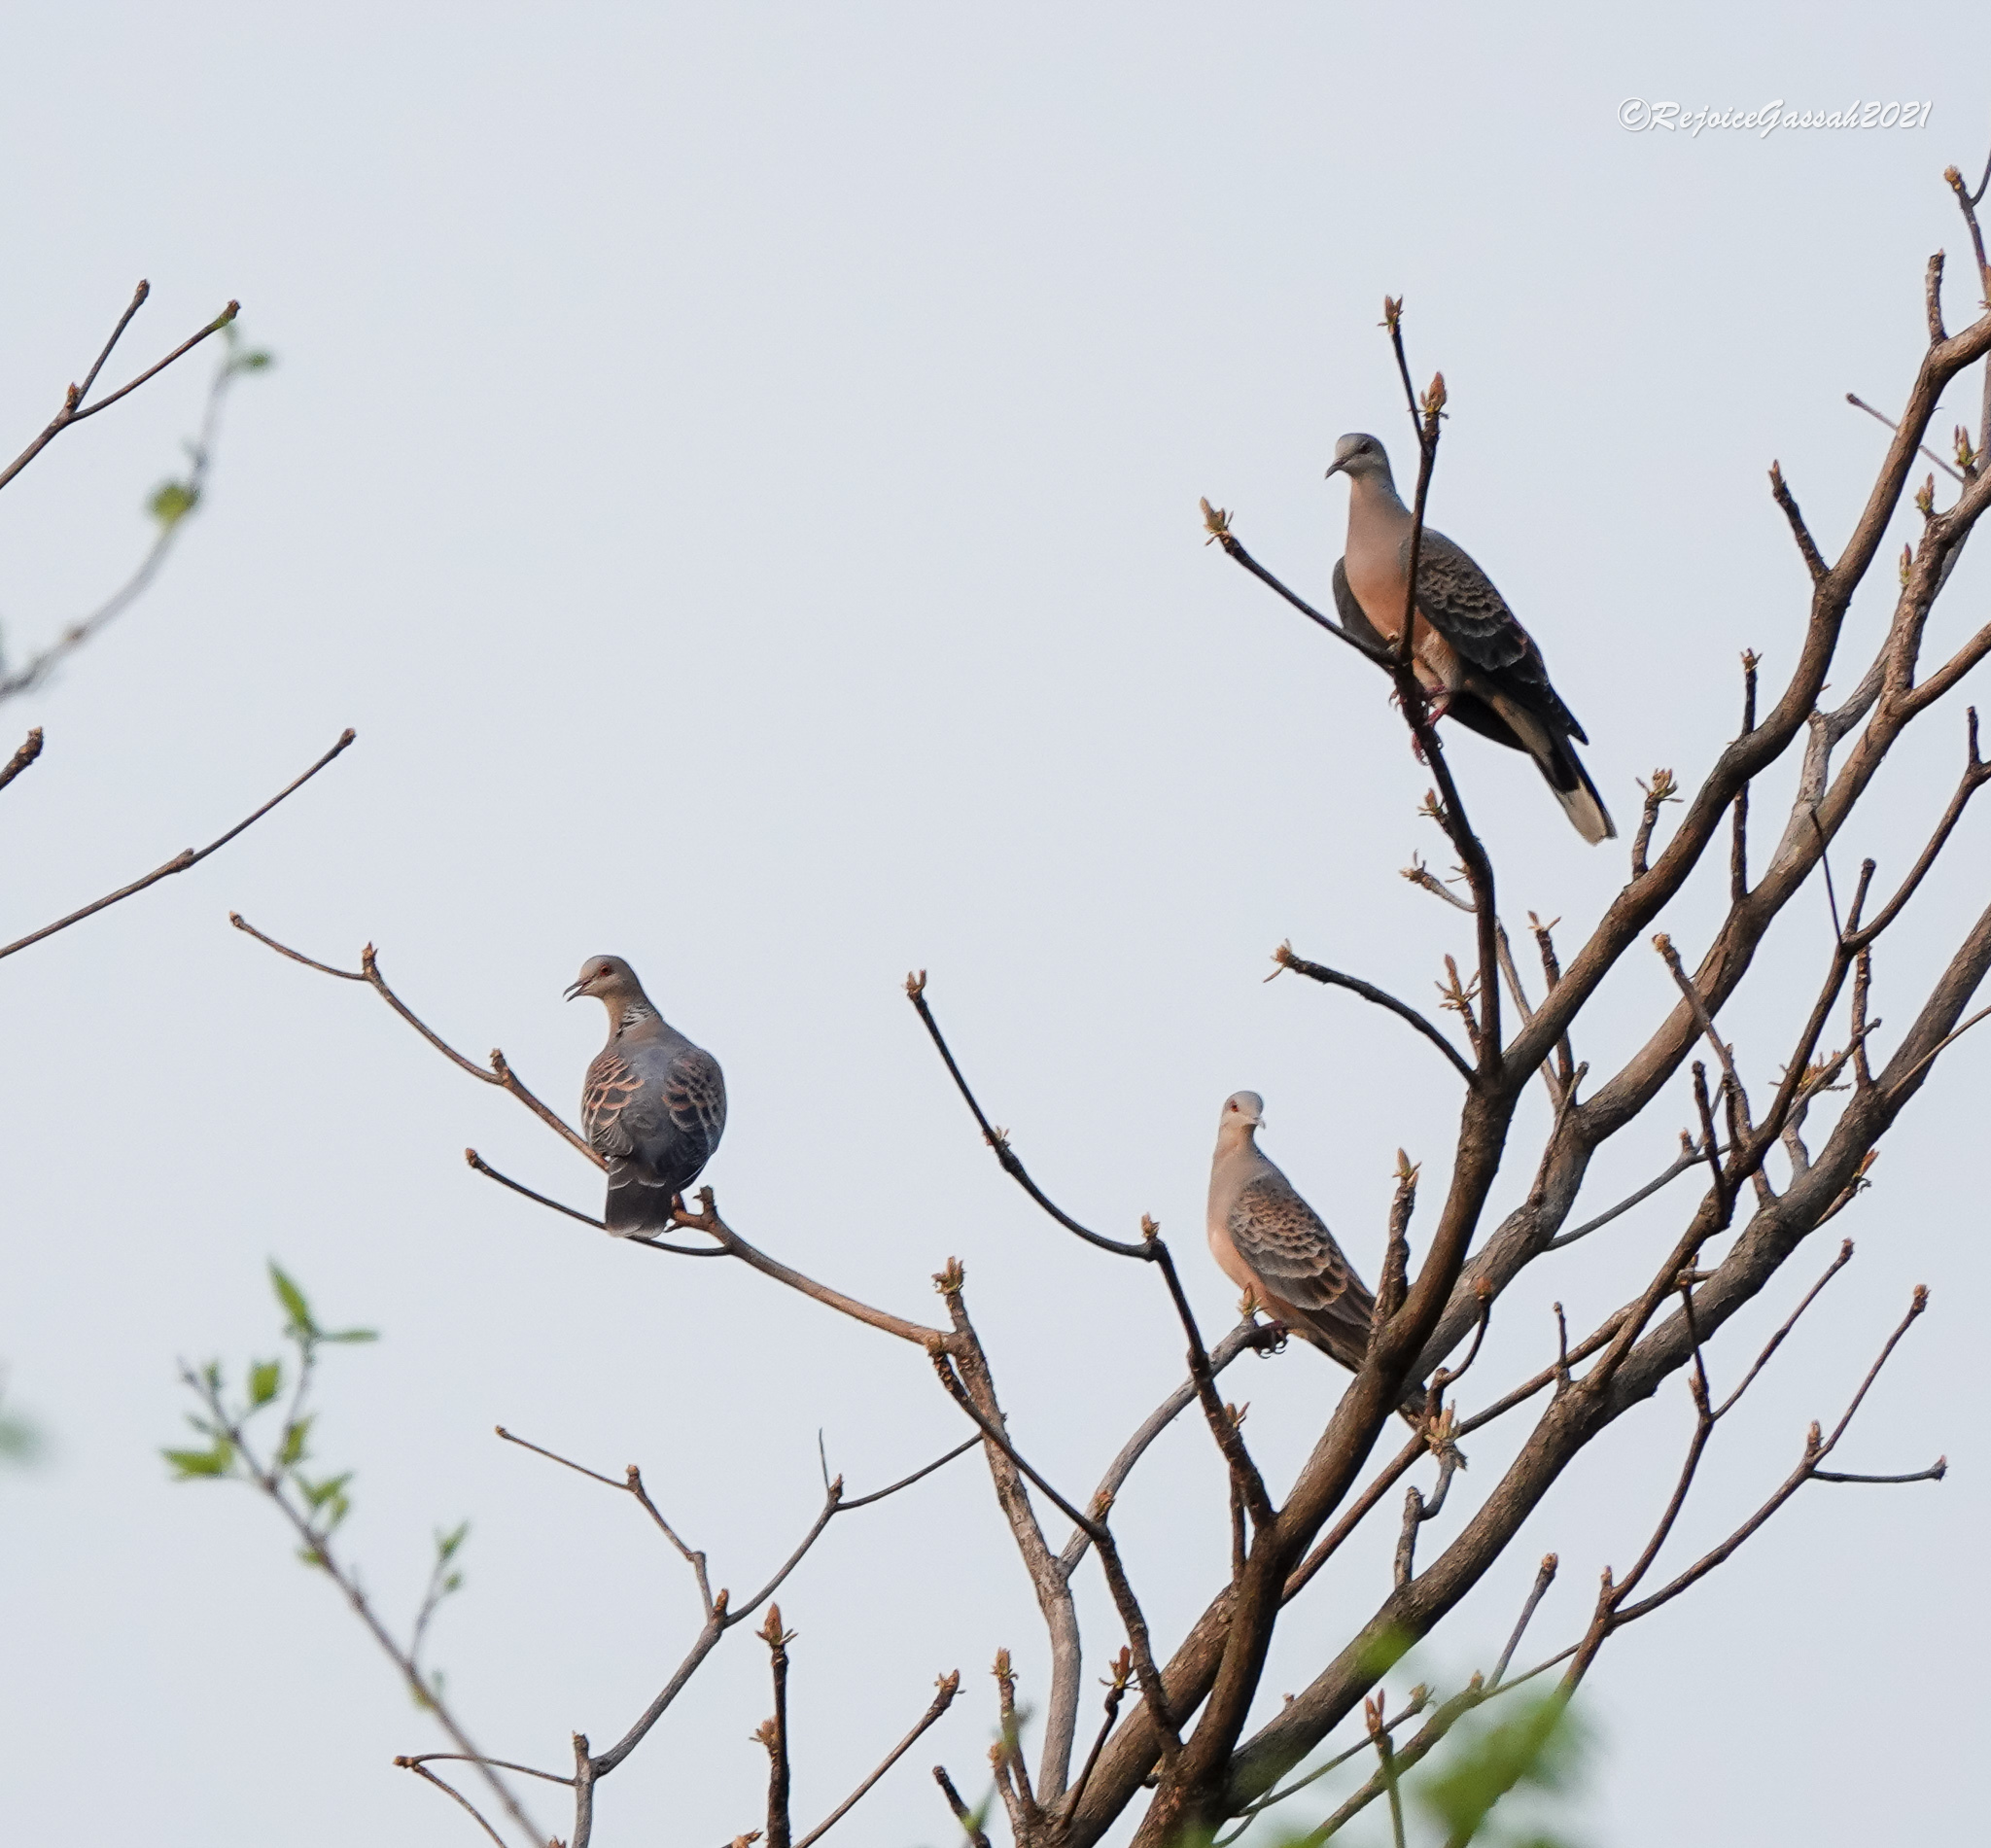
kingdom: Animalia
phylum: Chordata
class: Aves
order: Columbiformes
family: Columbidae
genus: Streptopelia
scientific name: Streptopelia orientalis
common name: Oriental turtle dove
